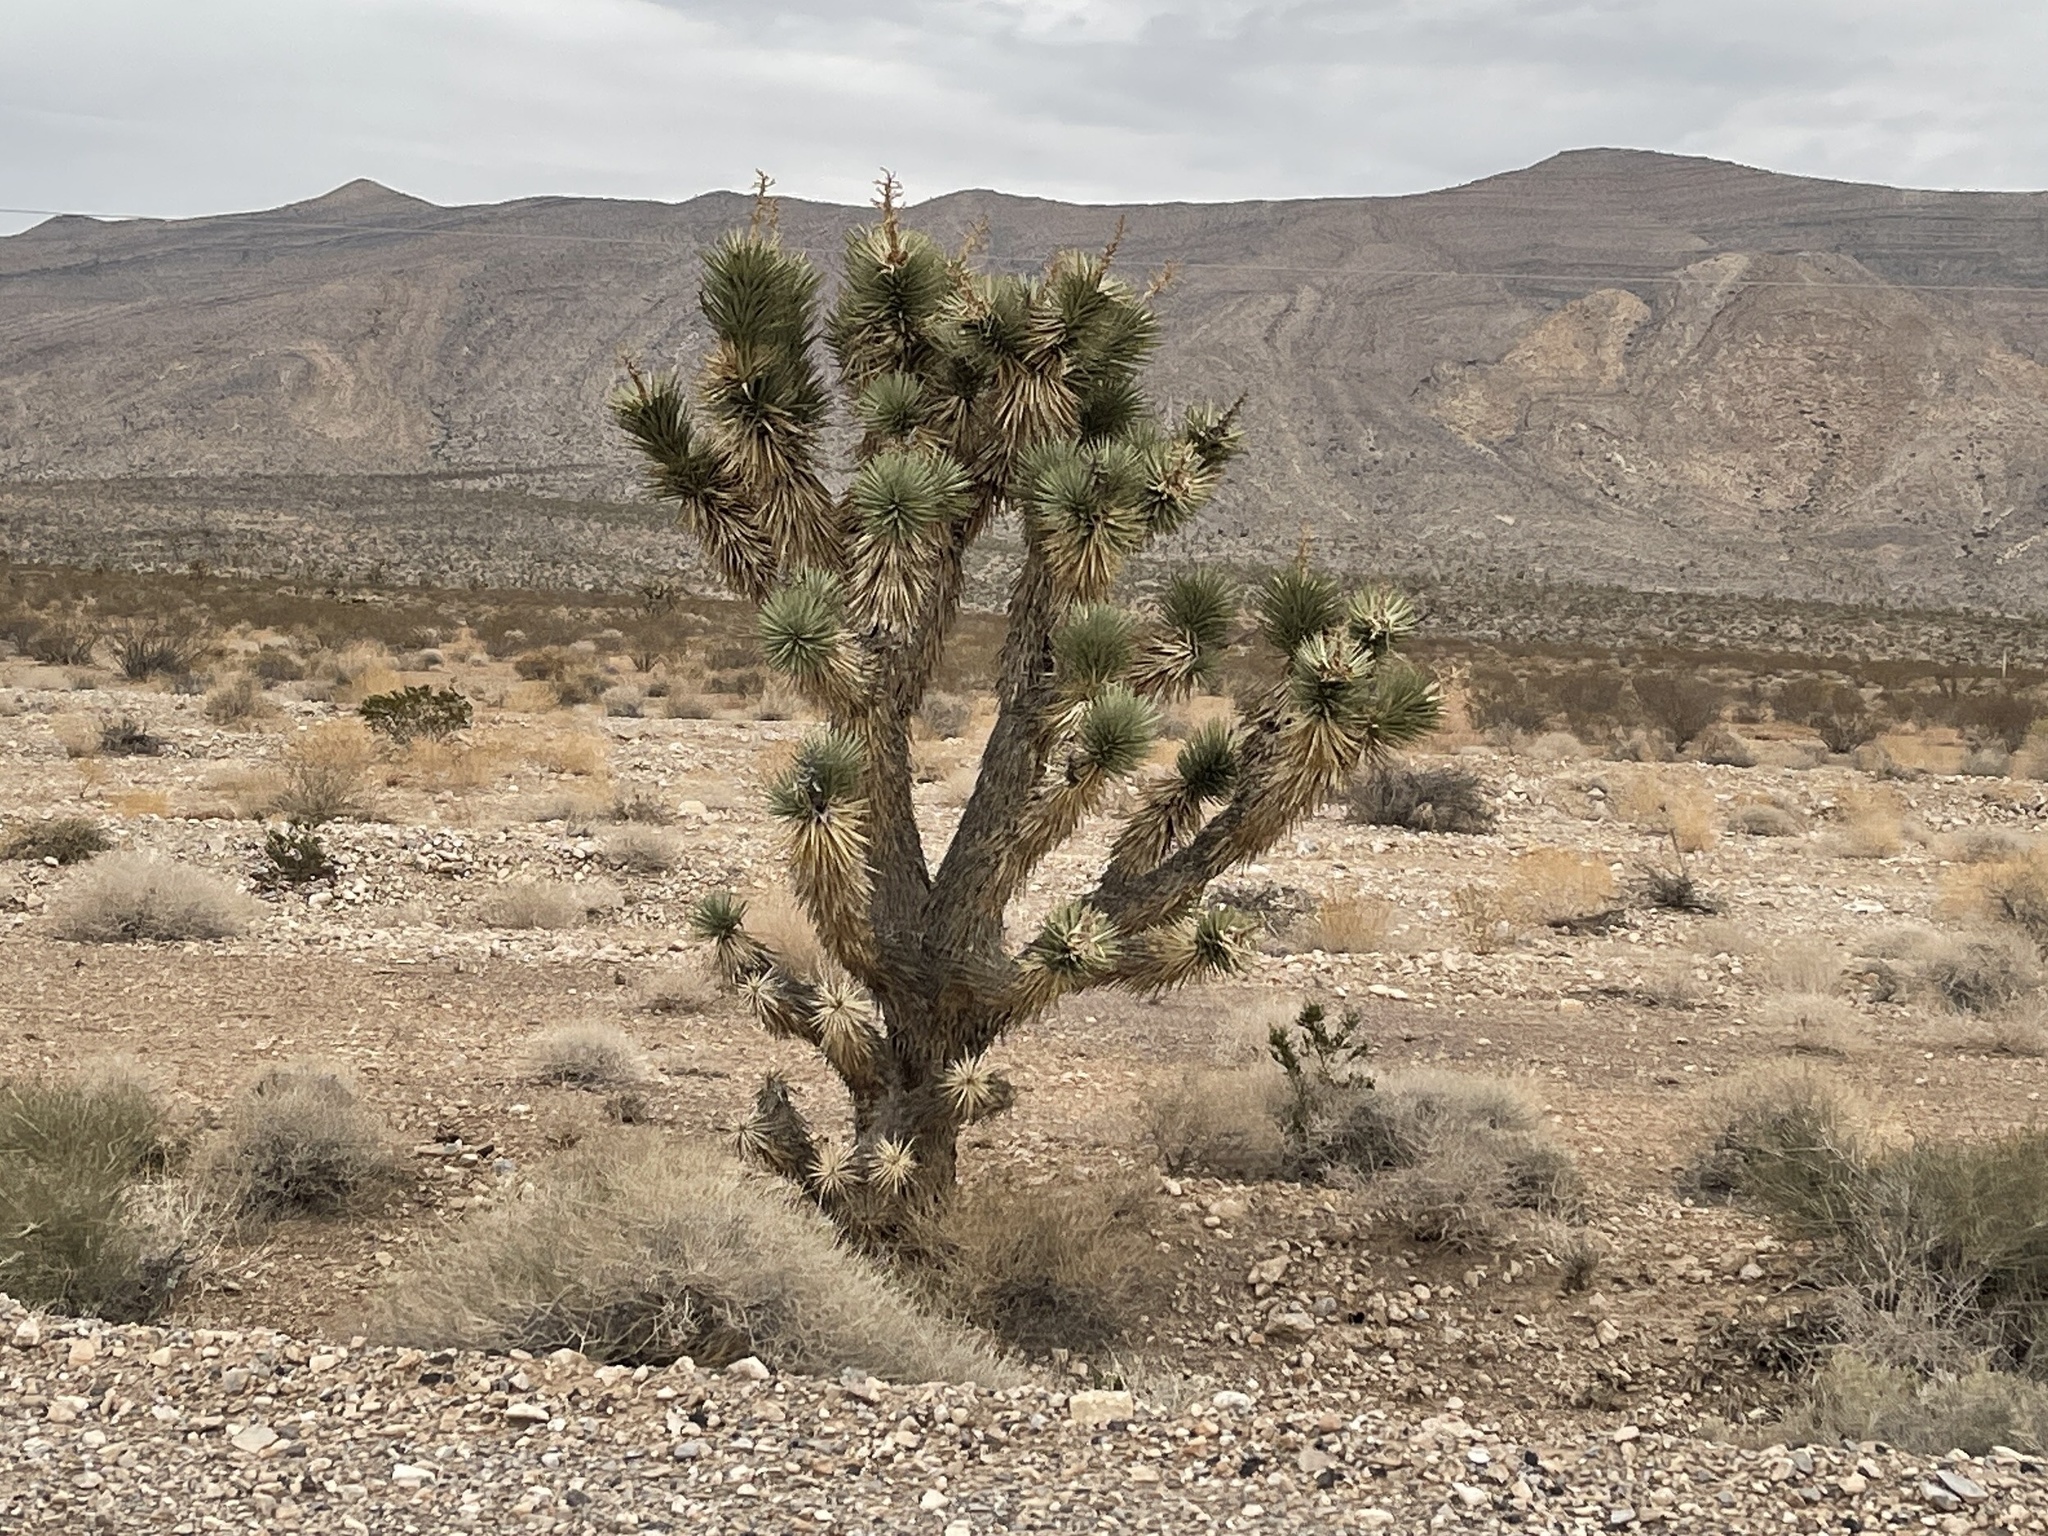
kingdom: Plantae
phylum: Tracheophyta
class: Liliopsida
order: Asparagales
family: Asparagaceae
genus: Yucca
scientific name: Yucca brevifolia
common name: Joshua tree
